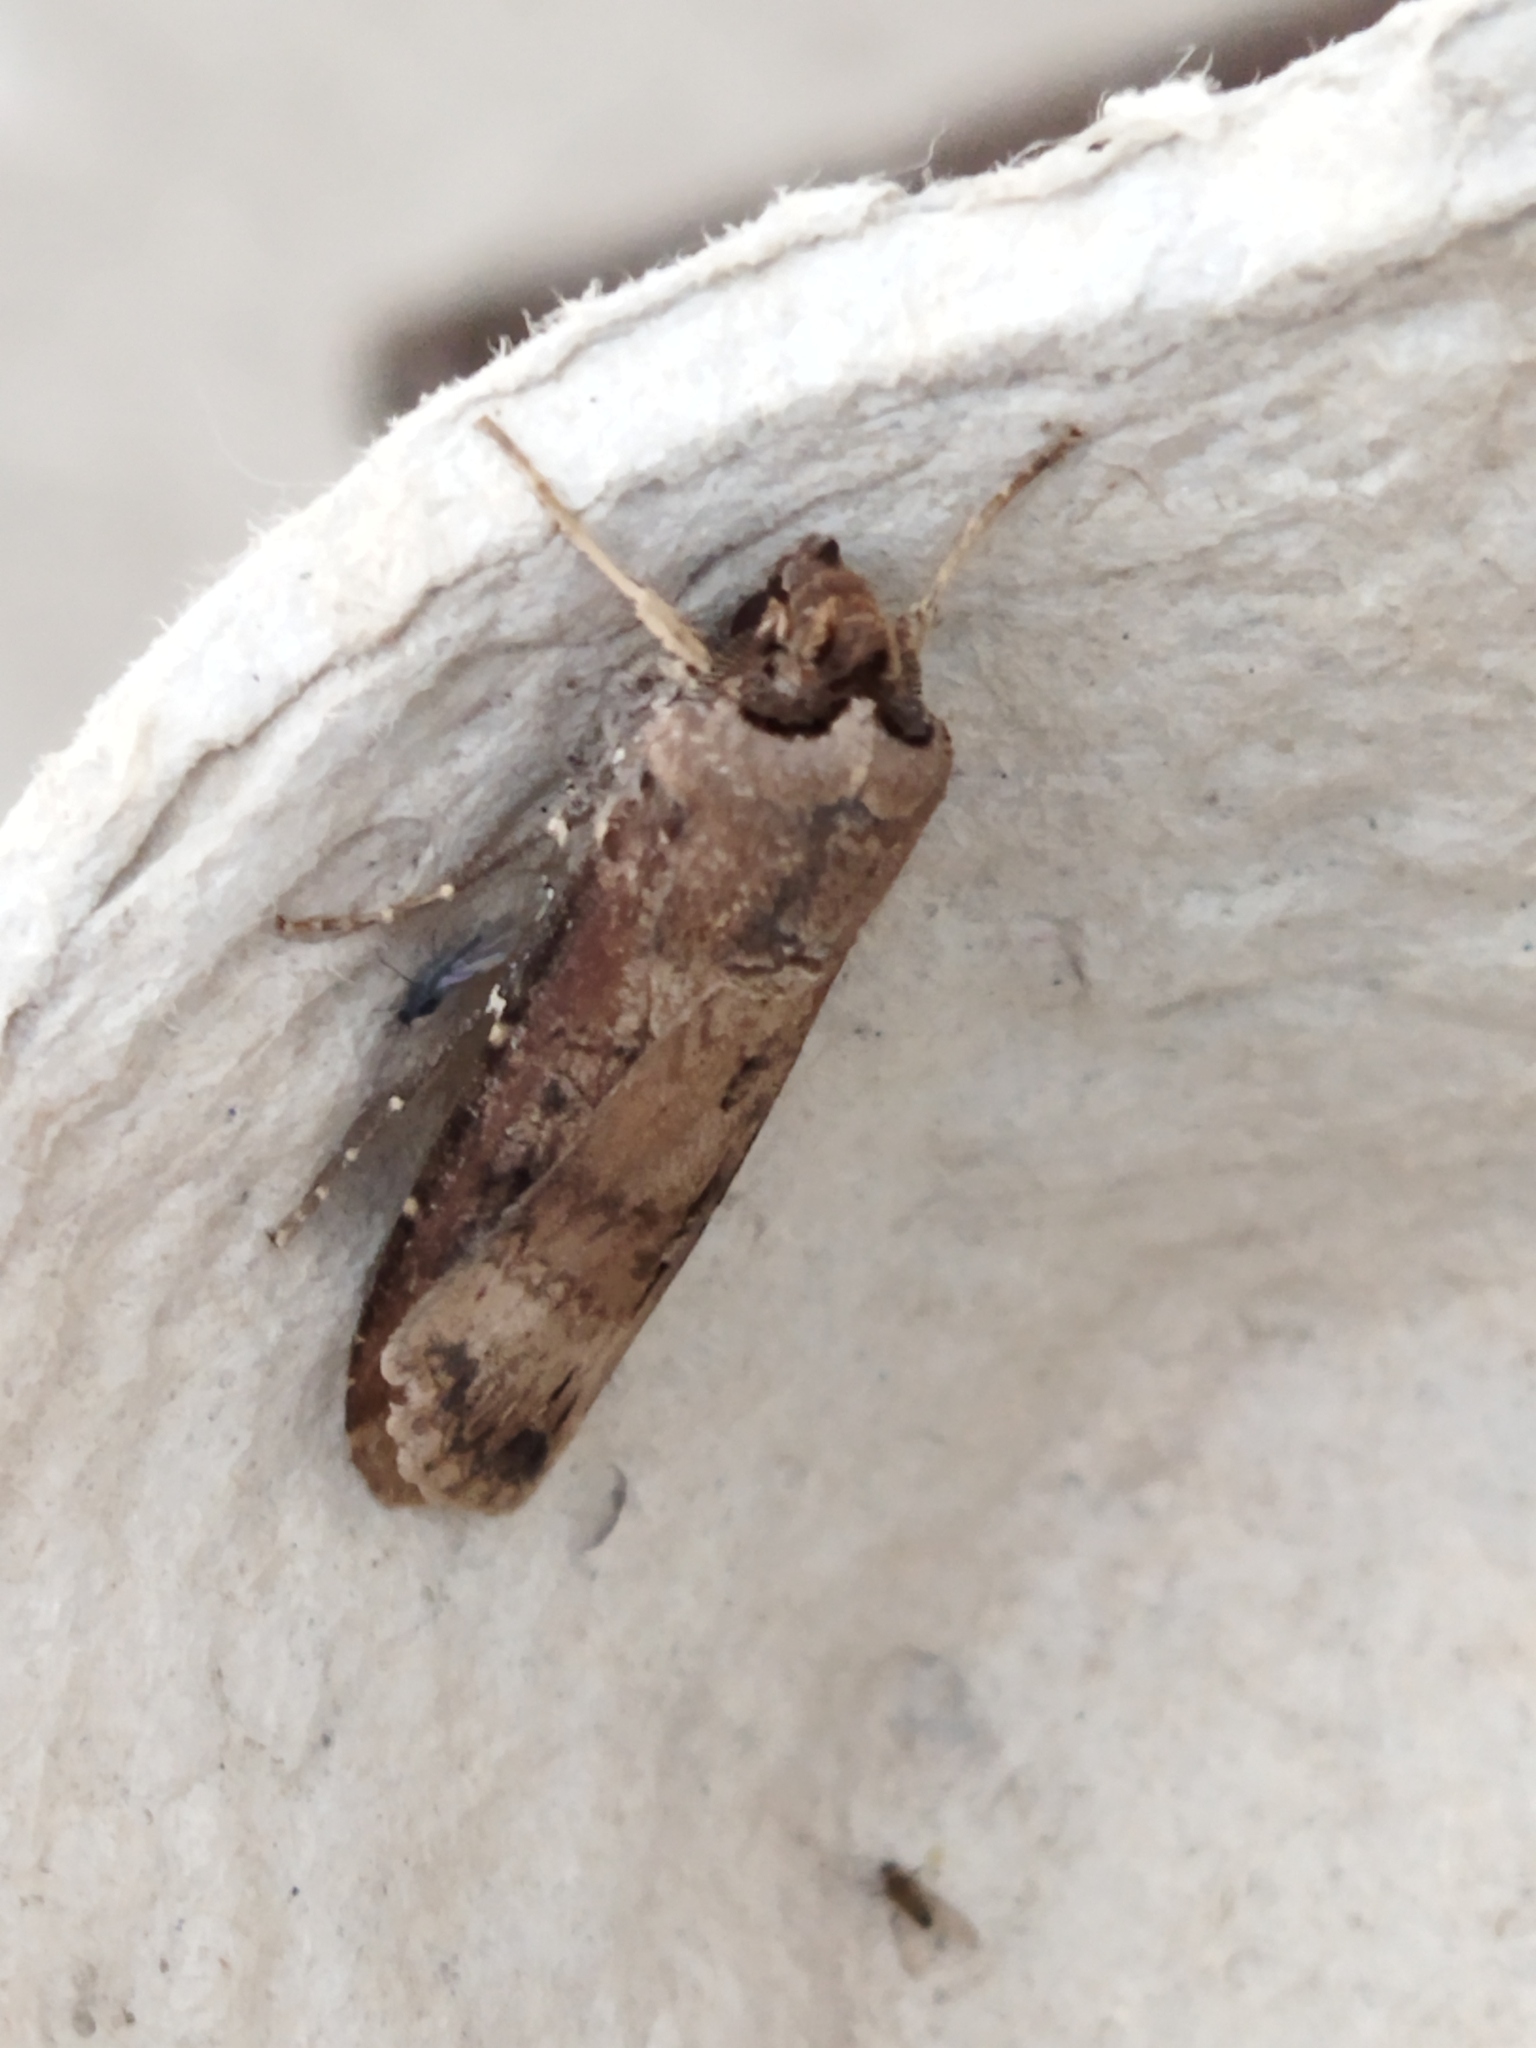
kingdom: Animalia
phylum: Arthropoda
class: Insecta
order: Lepidoptera
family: Noctuidae
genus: Agrotis
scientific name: Agrotis ipsilon
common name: Dark sword-grass
